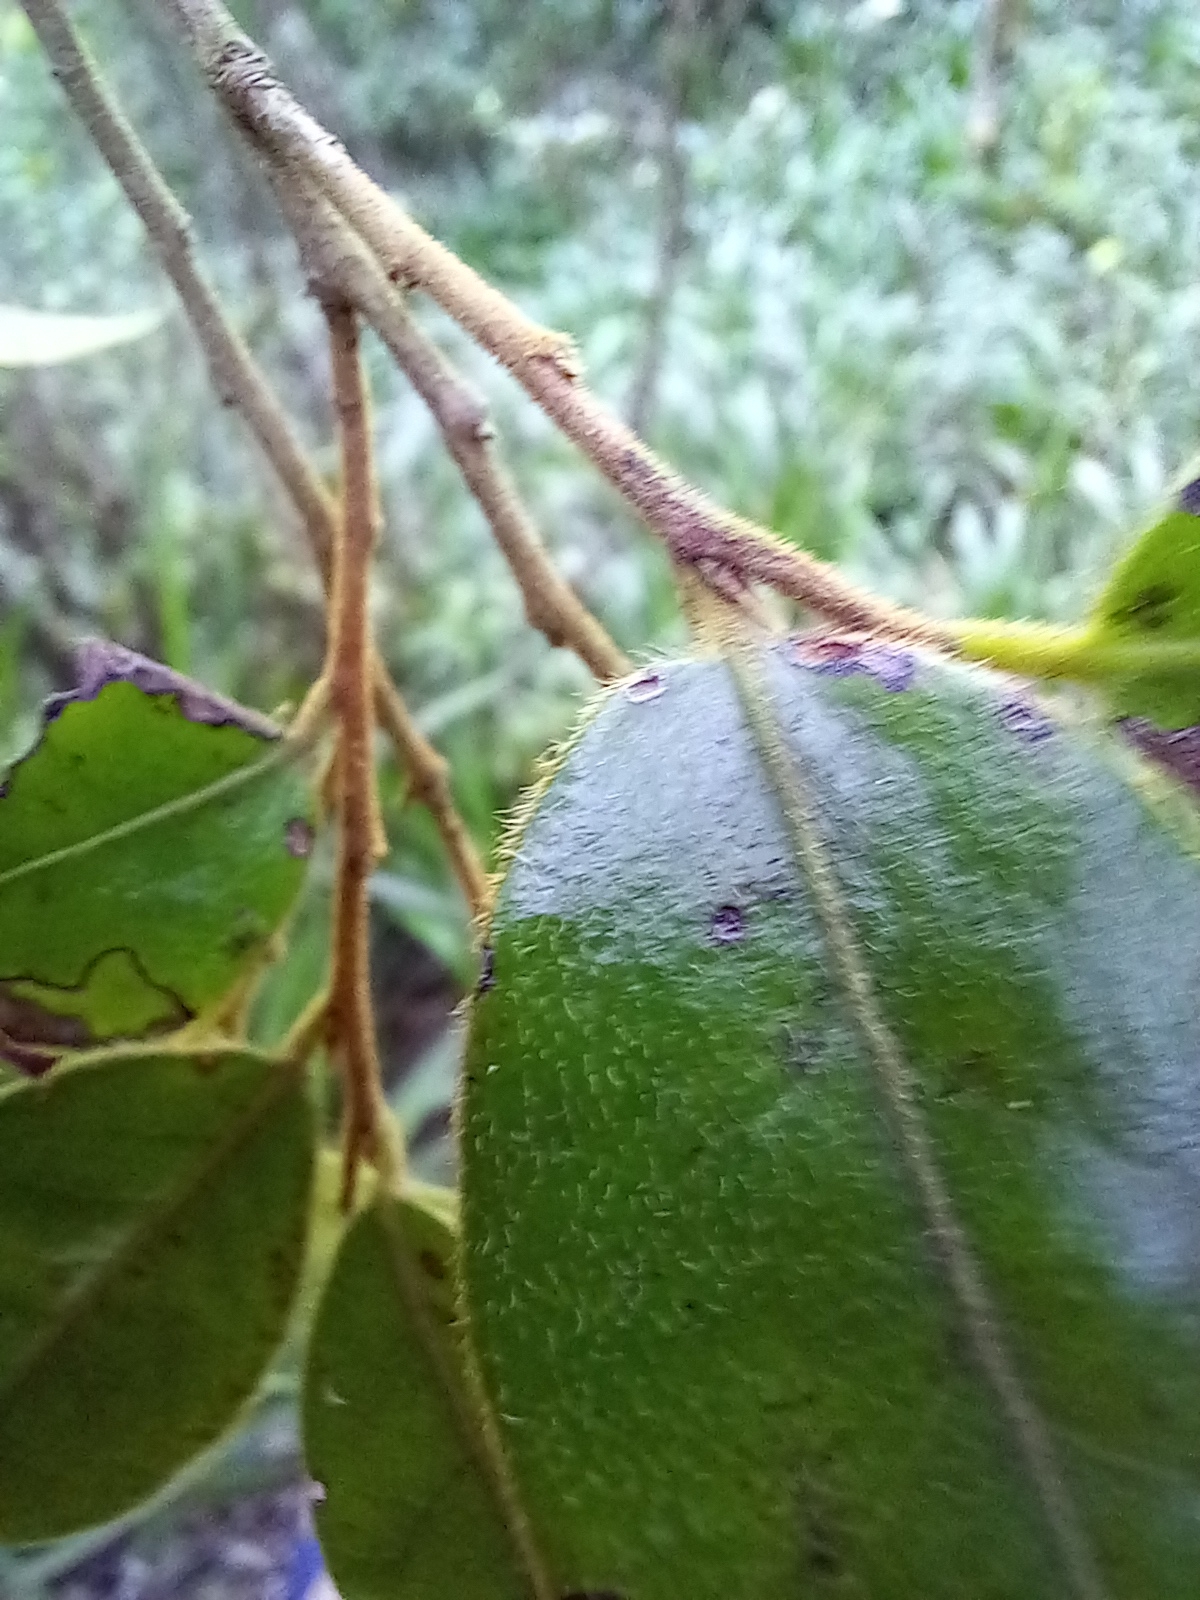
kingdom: Plantae
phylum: Tracheophyta
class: Magnoliopsida
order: Ericales
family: Ebenaceae
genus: Diospyros
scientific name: Diospyros whyteana
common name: Bladder-nut
